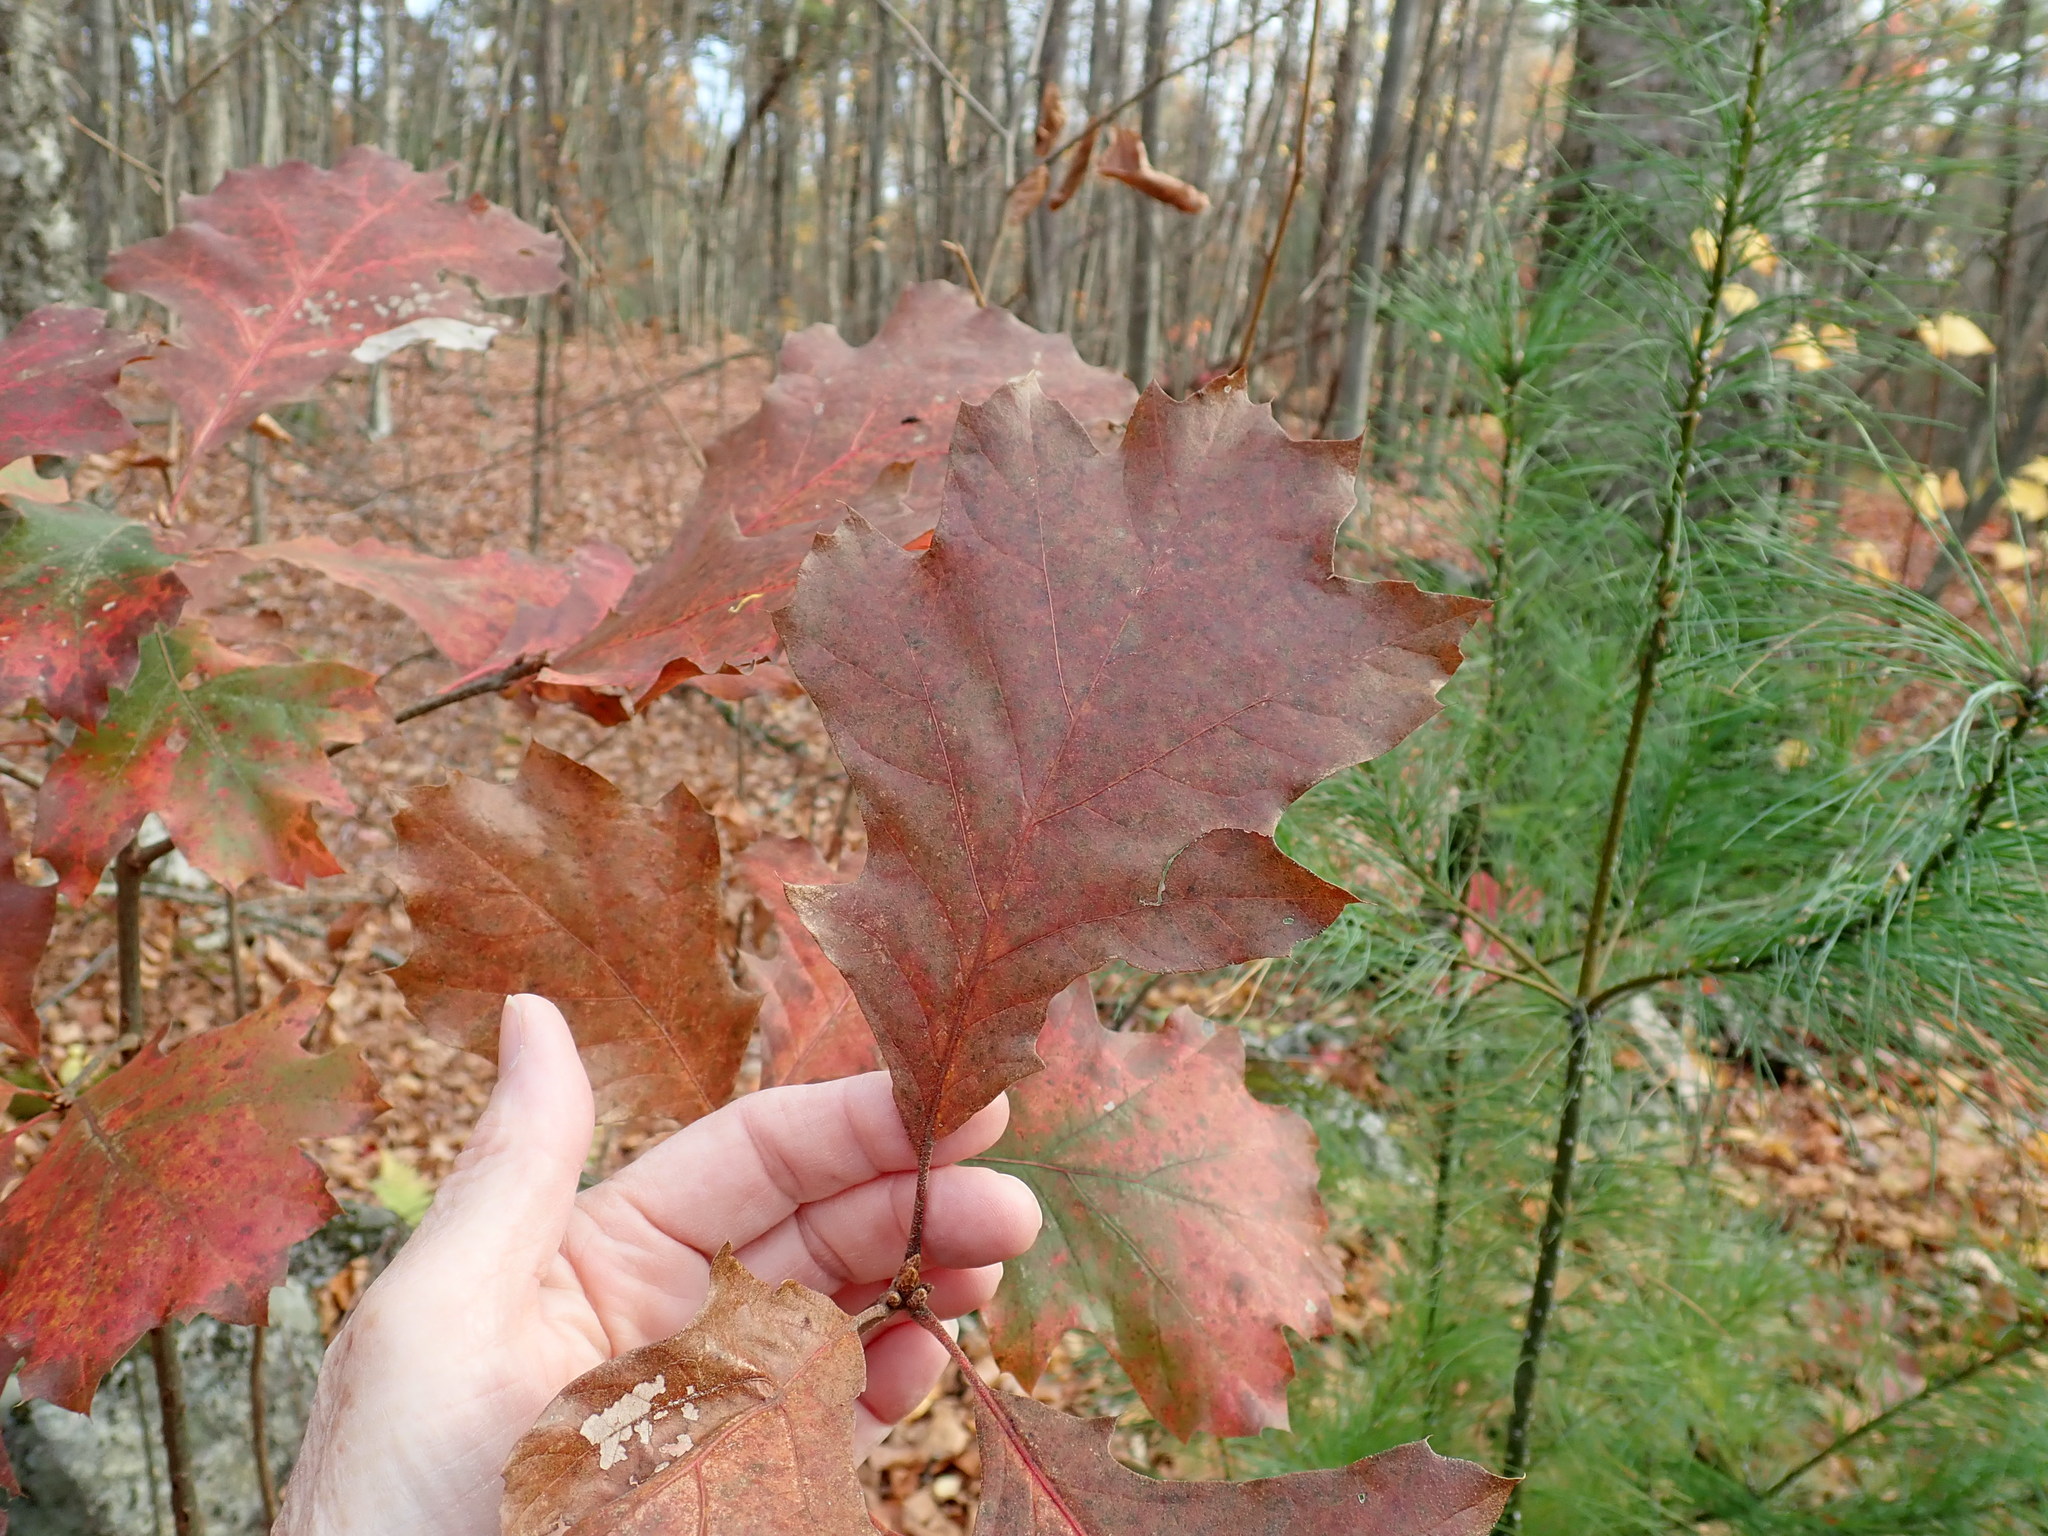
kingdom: Plantae
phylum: Tracheophyta
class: Magnoliopsida
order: Fagales
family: Fagaceae
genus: Quercus
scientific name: Quercus velutina
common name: Black oak
